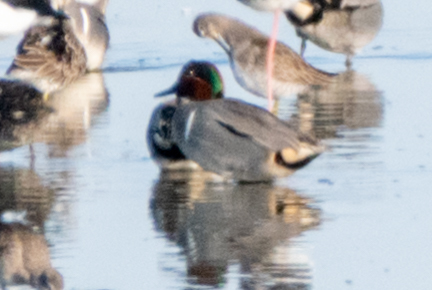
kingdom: Animalia
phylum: Chordata
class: Aves
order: Anseriformes
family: Anatidae
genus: Anas
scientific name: Anas crecca
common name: Eurasian teal
